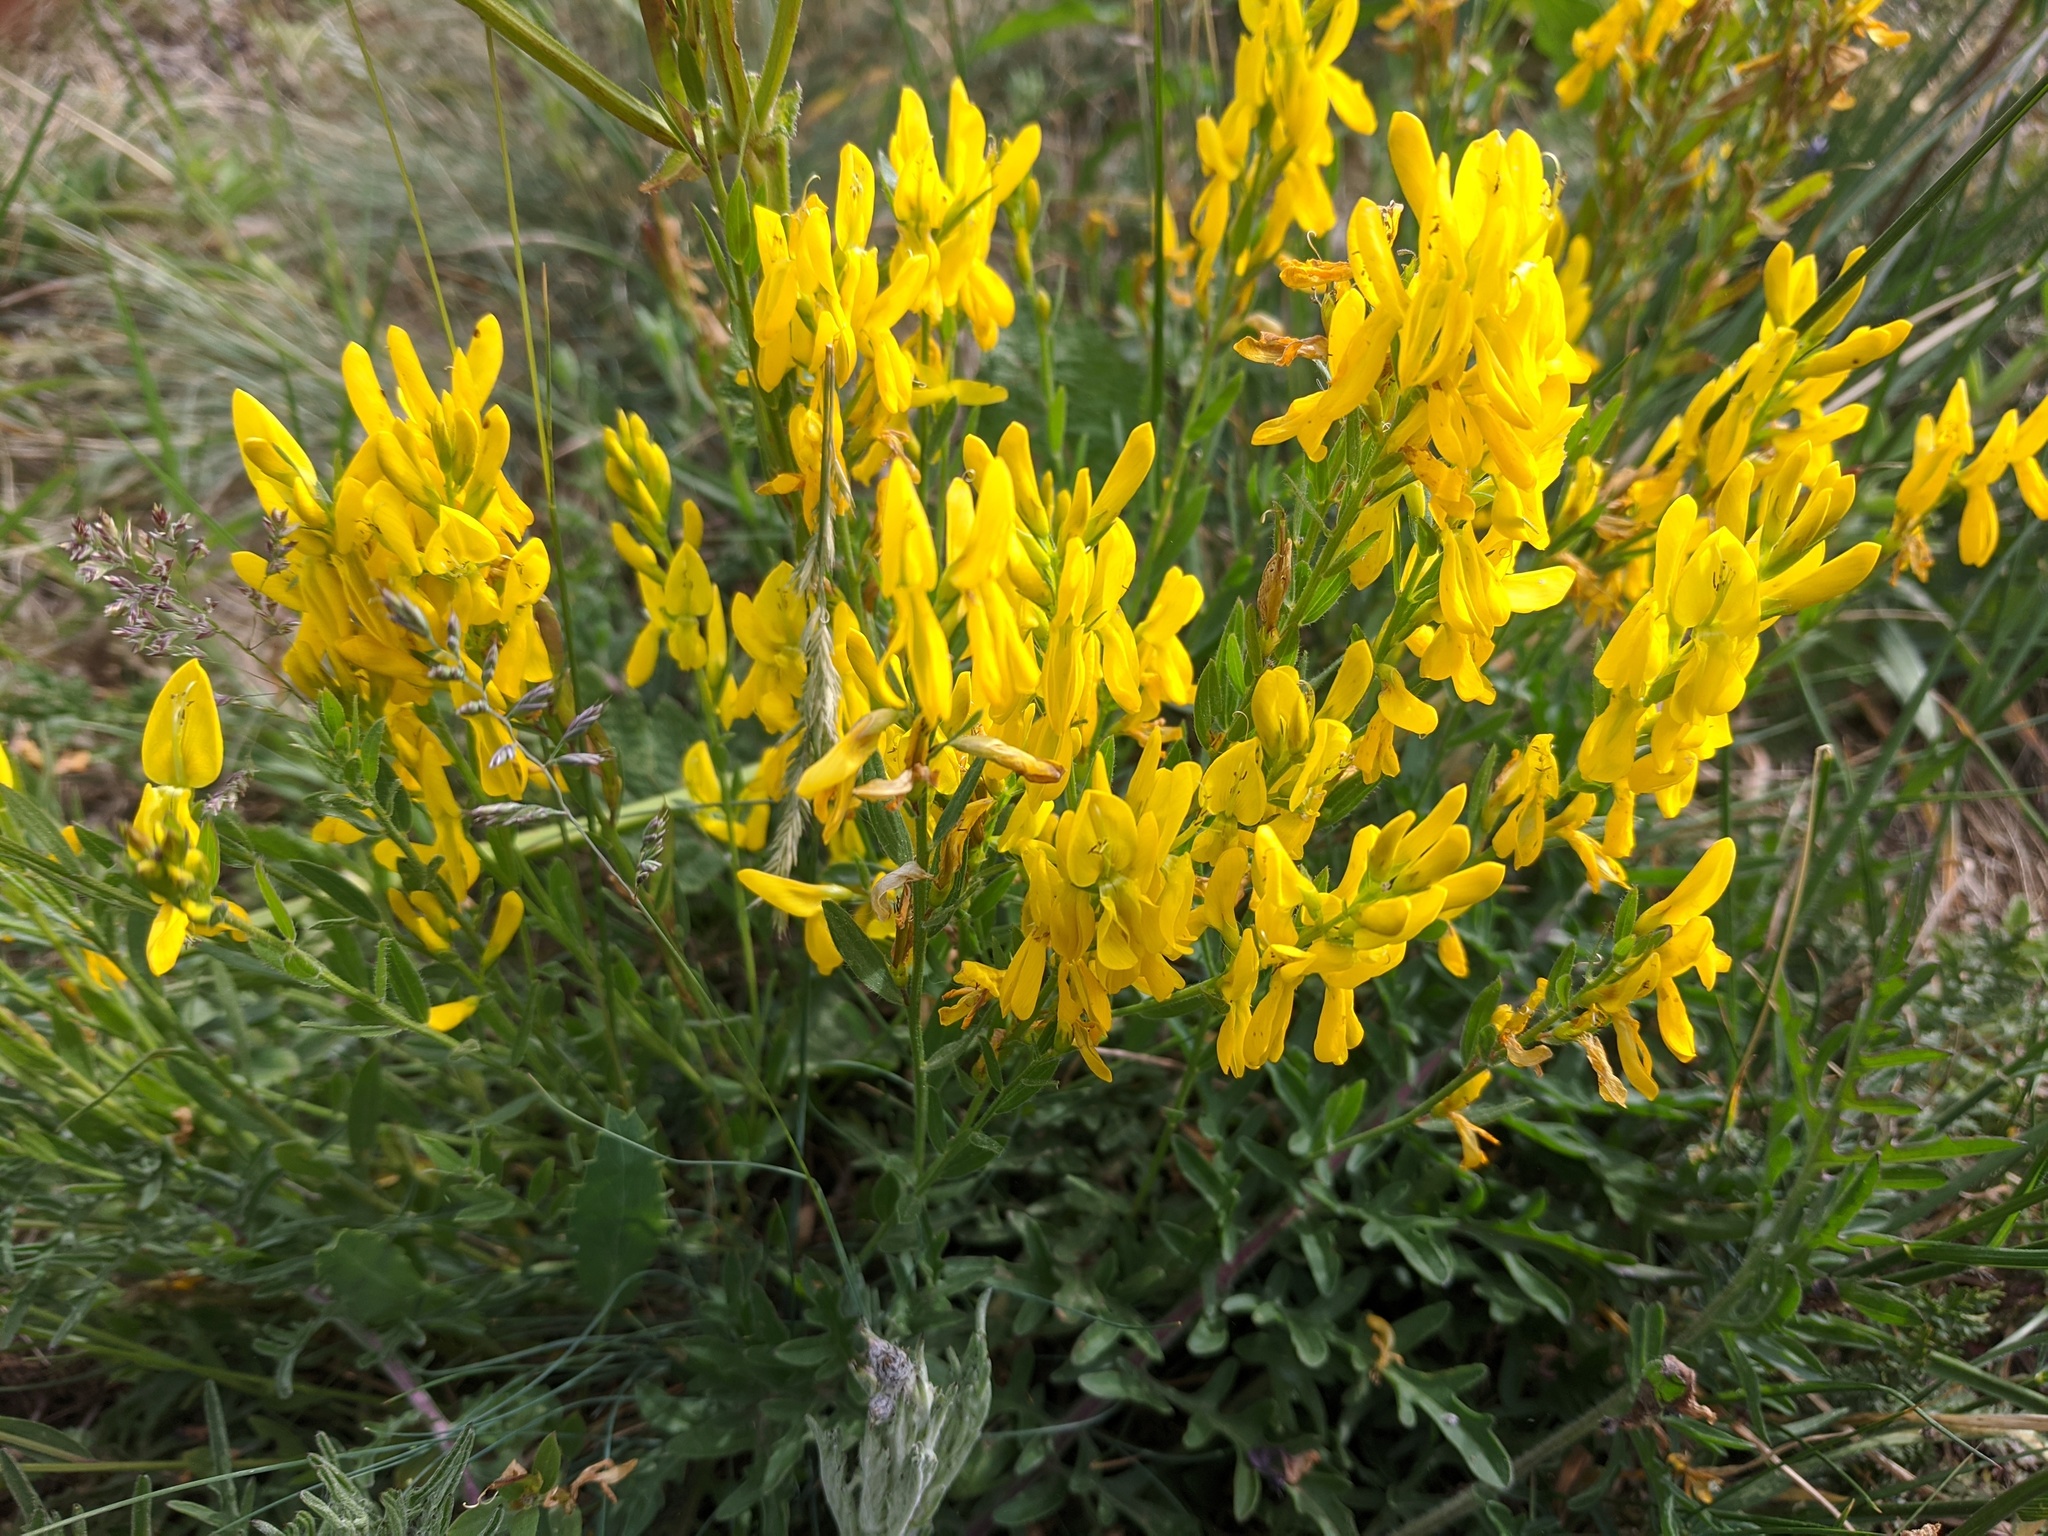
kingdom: Plantae
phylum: Tracheophyta
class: Magnoliopsida
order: Fabales
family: Fabaceae
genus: Genista
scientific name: Genista tinctoria
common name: Dyer's greenweed
